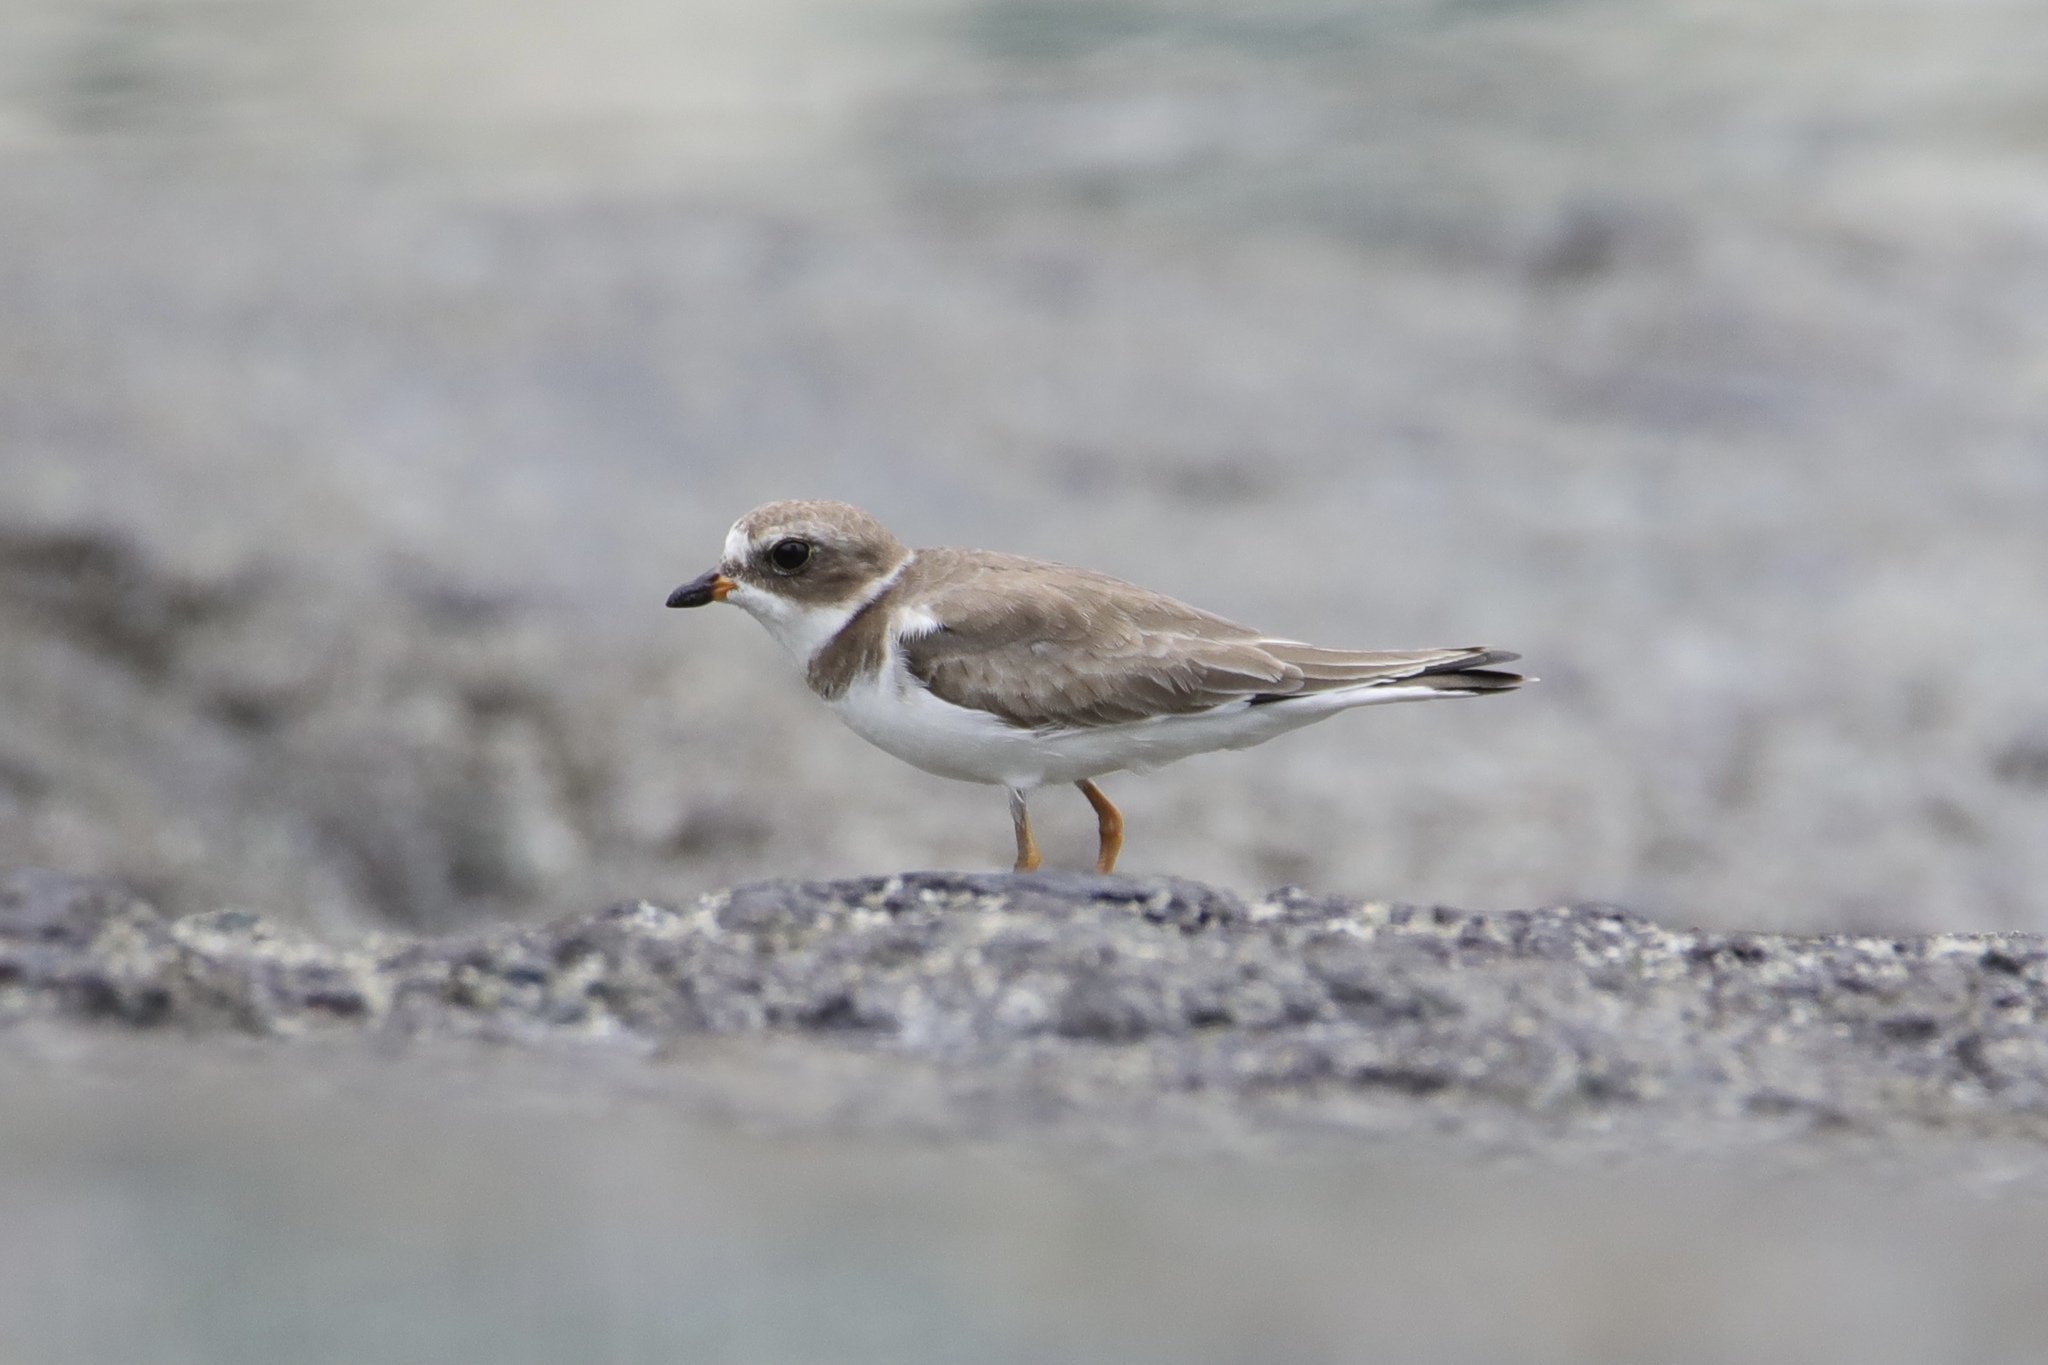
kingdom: Animalia
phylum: Chordata
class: Aves
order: Charadriiformes
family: Charadriidae
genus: Charadrius
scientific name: Charadrius semipalmatus
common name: Semipalmated plover
